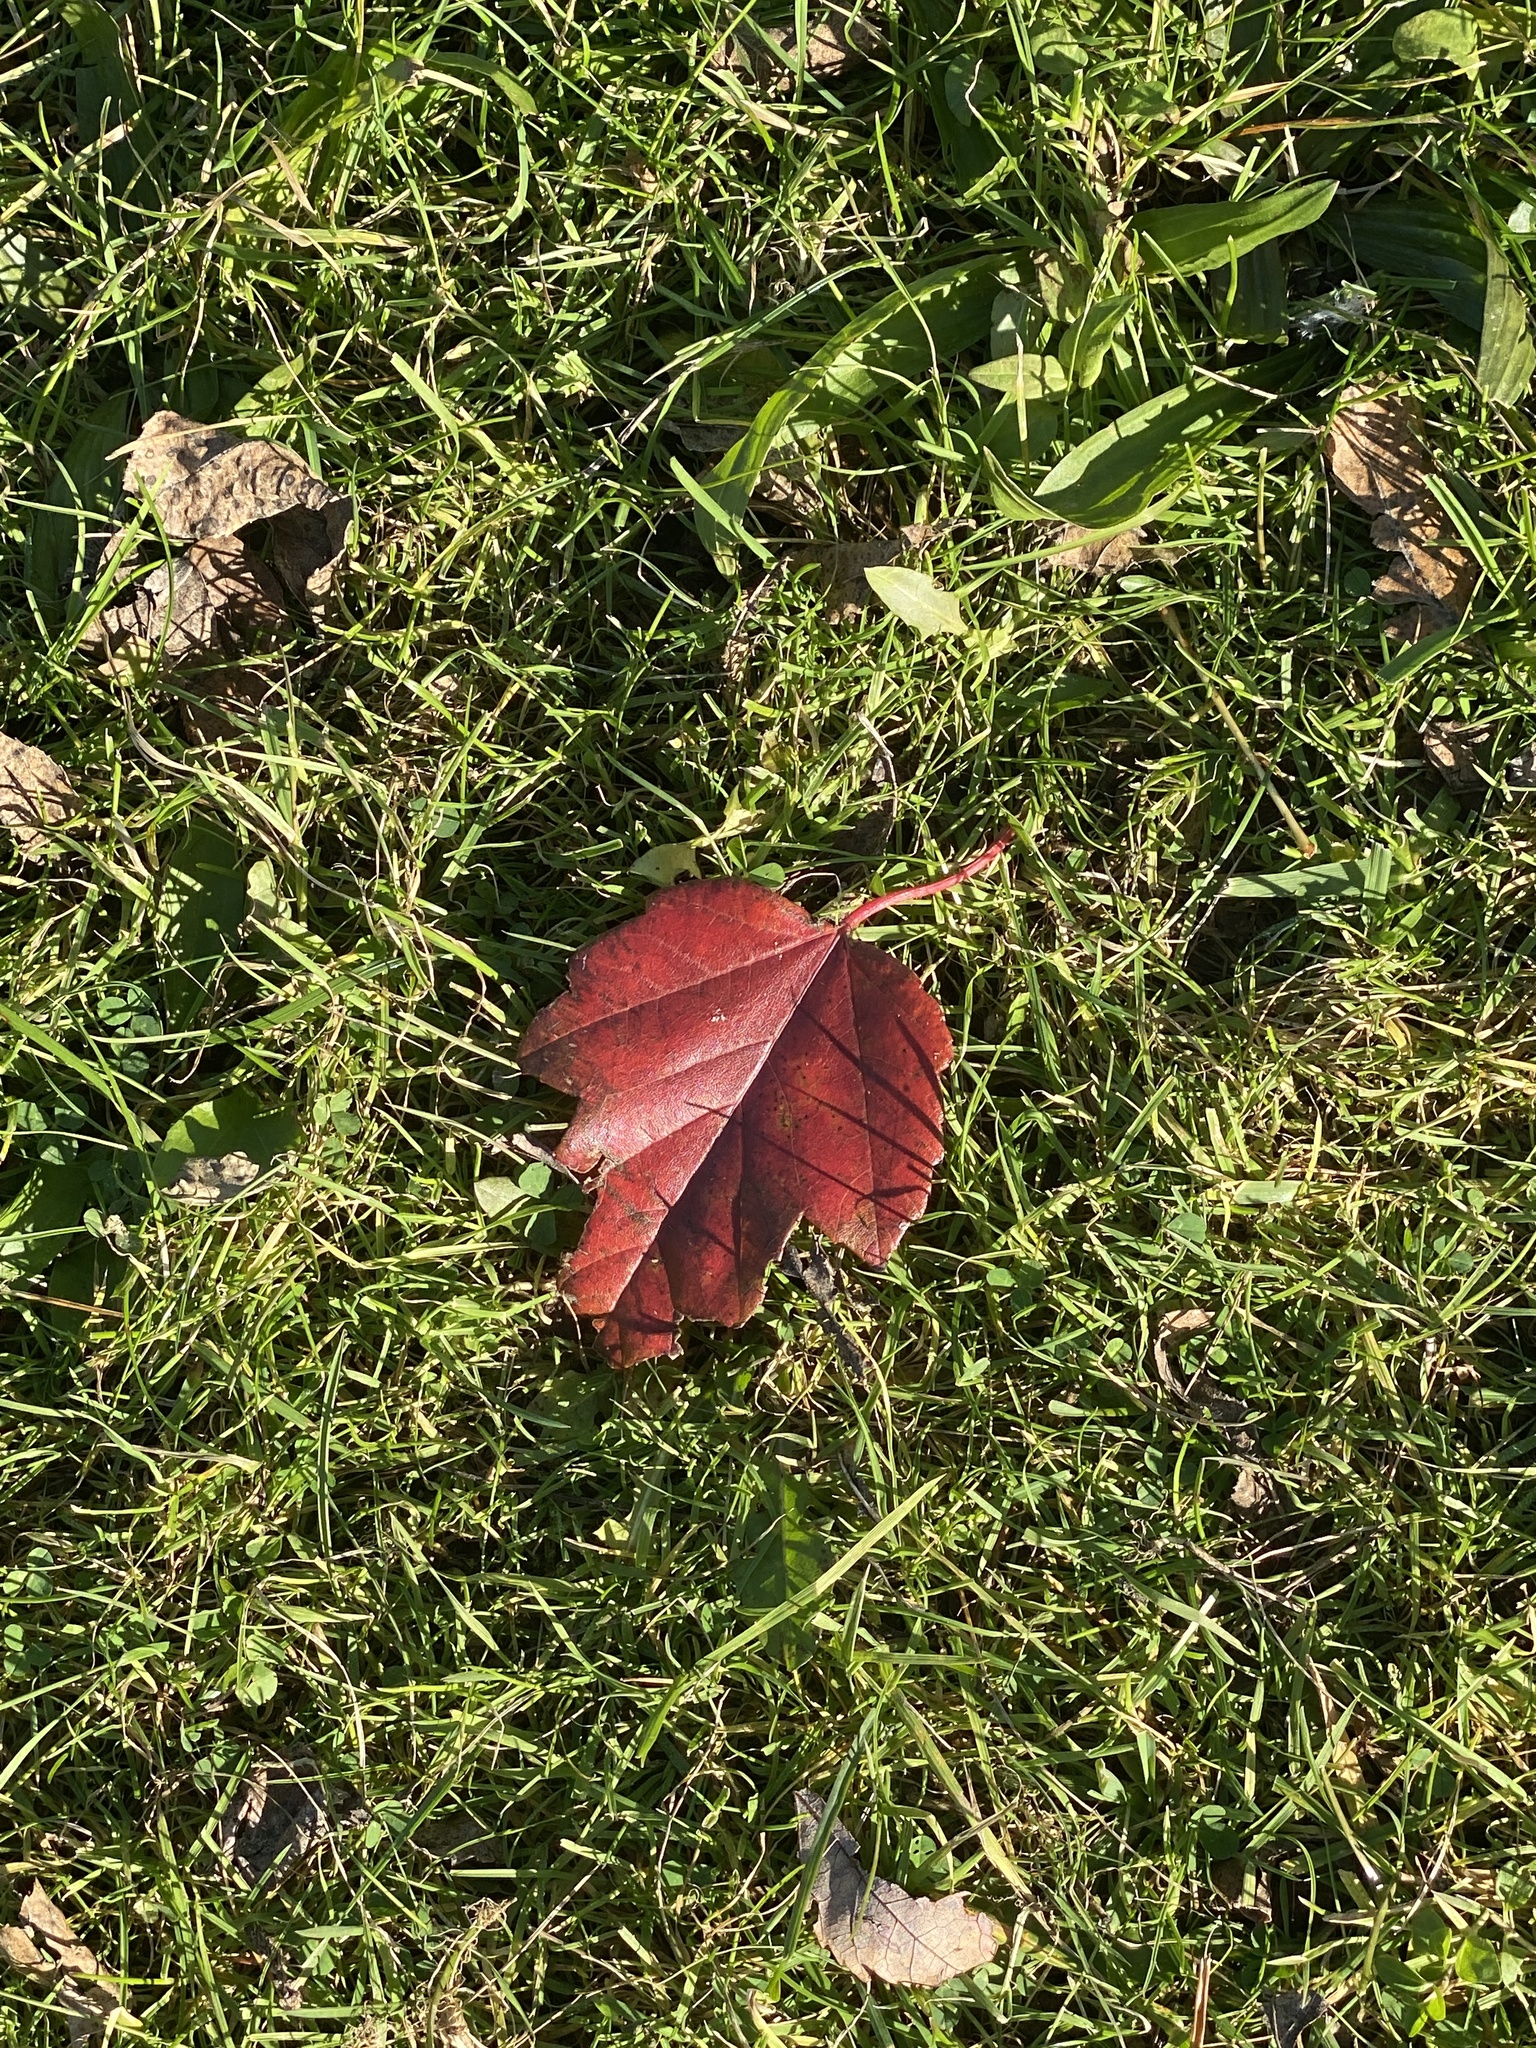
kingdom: Plantae
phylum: Tracheophyta
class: Magnoliopsida
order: Sapindales
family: Sapindaceae
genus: Acer
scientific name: Acer rubrum
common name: Red maple
